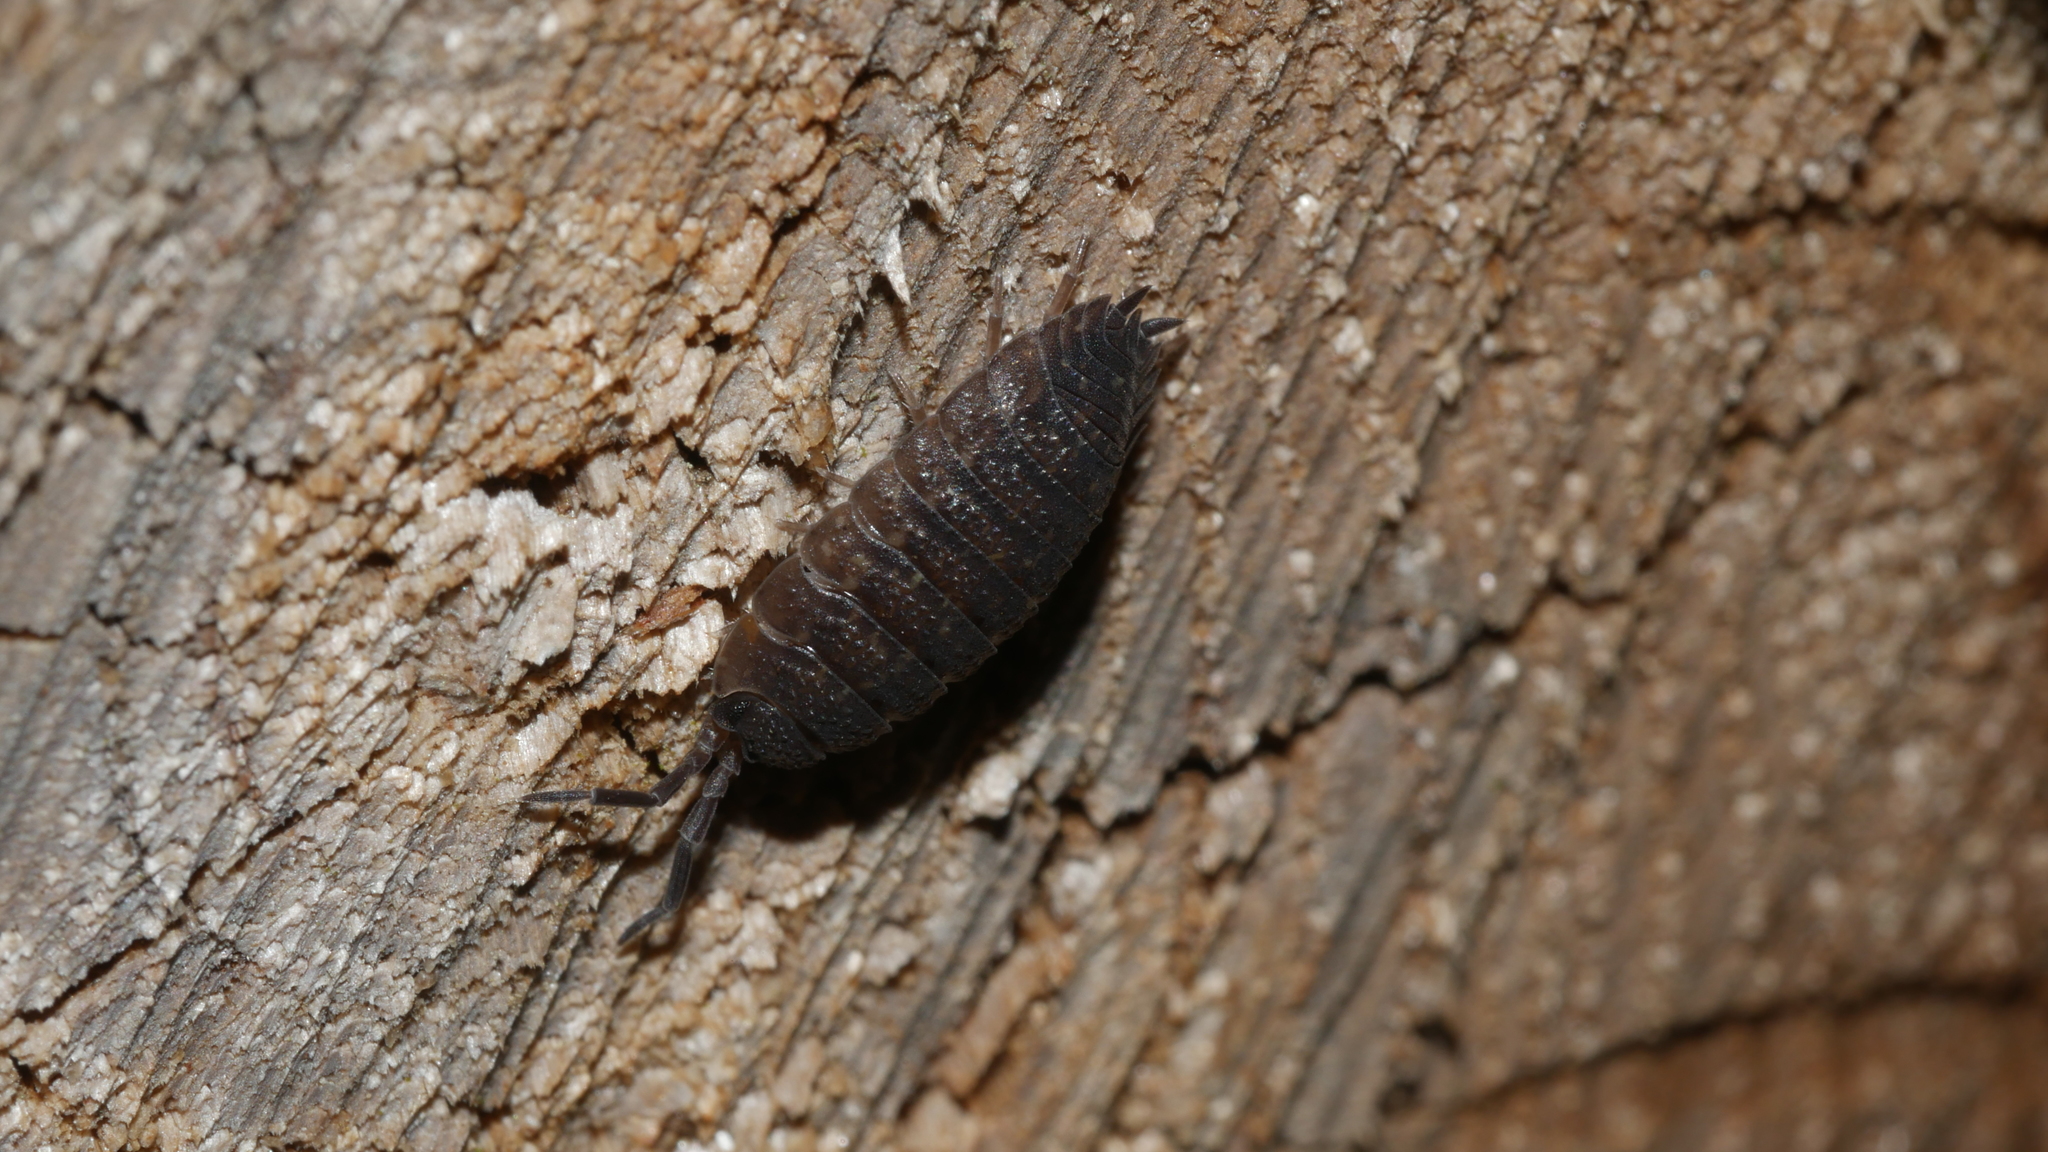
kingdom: Animalia
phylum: Arthropoda
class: Malacostraca
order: Isopoda
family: Porcellionidae
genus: Porcellio
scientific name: Porcellio scaber
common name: Common rough woodlouse
